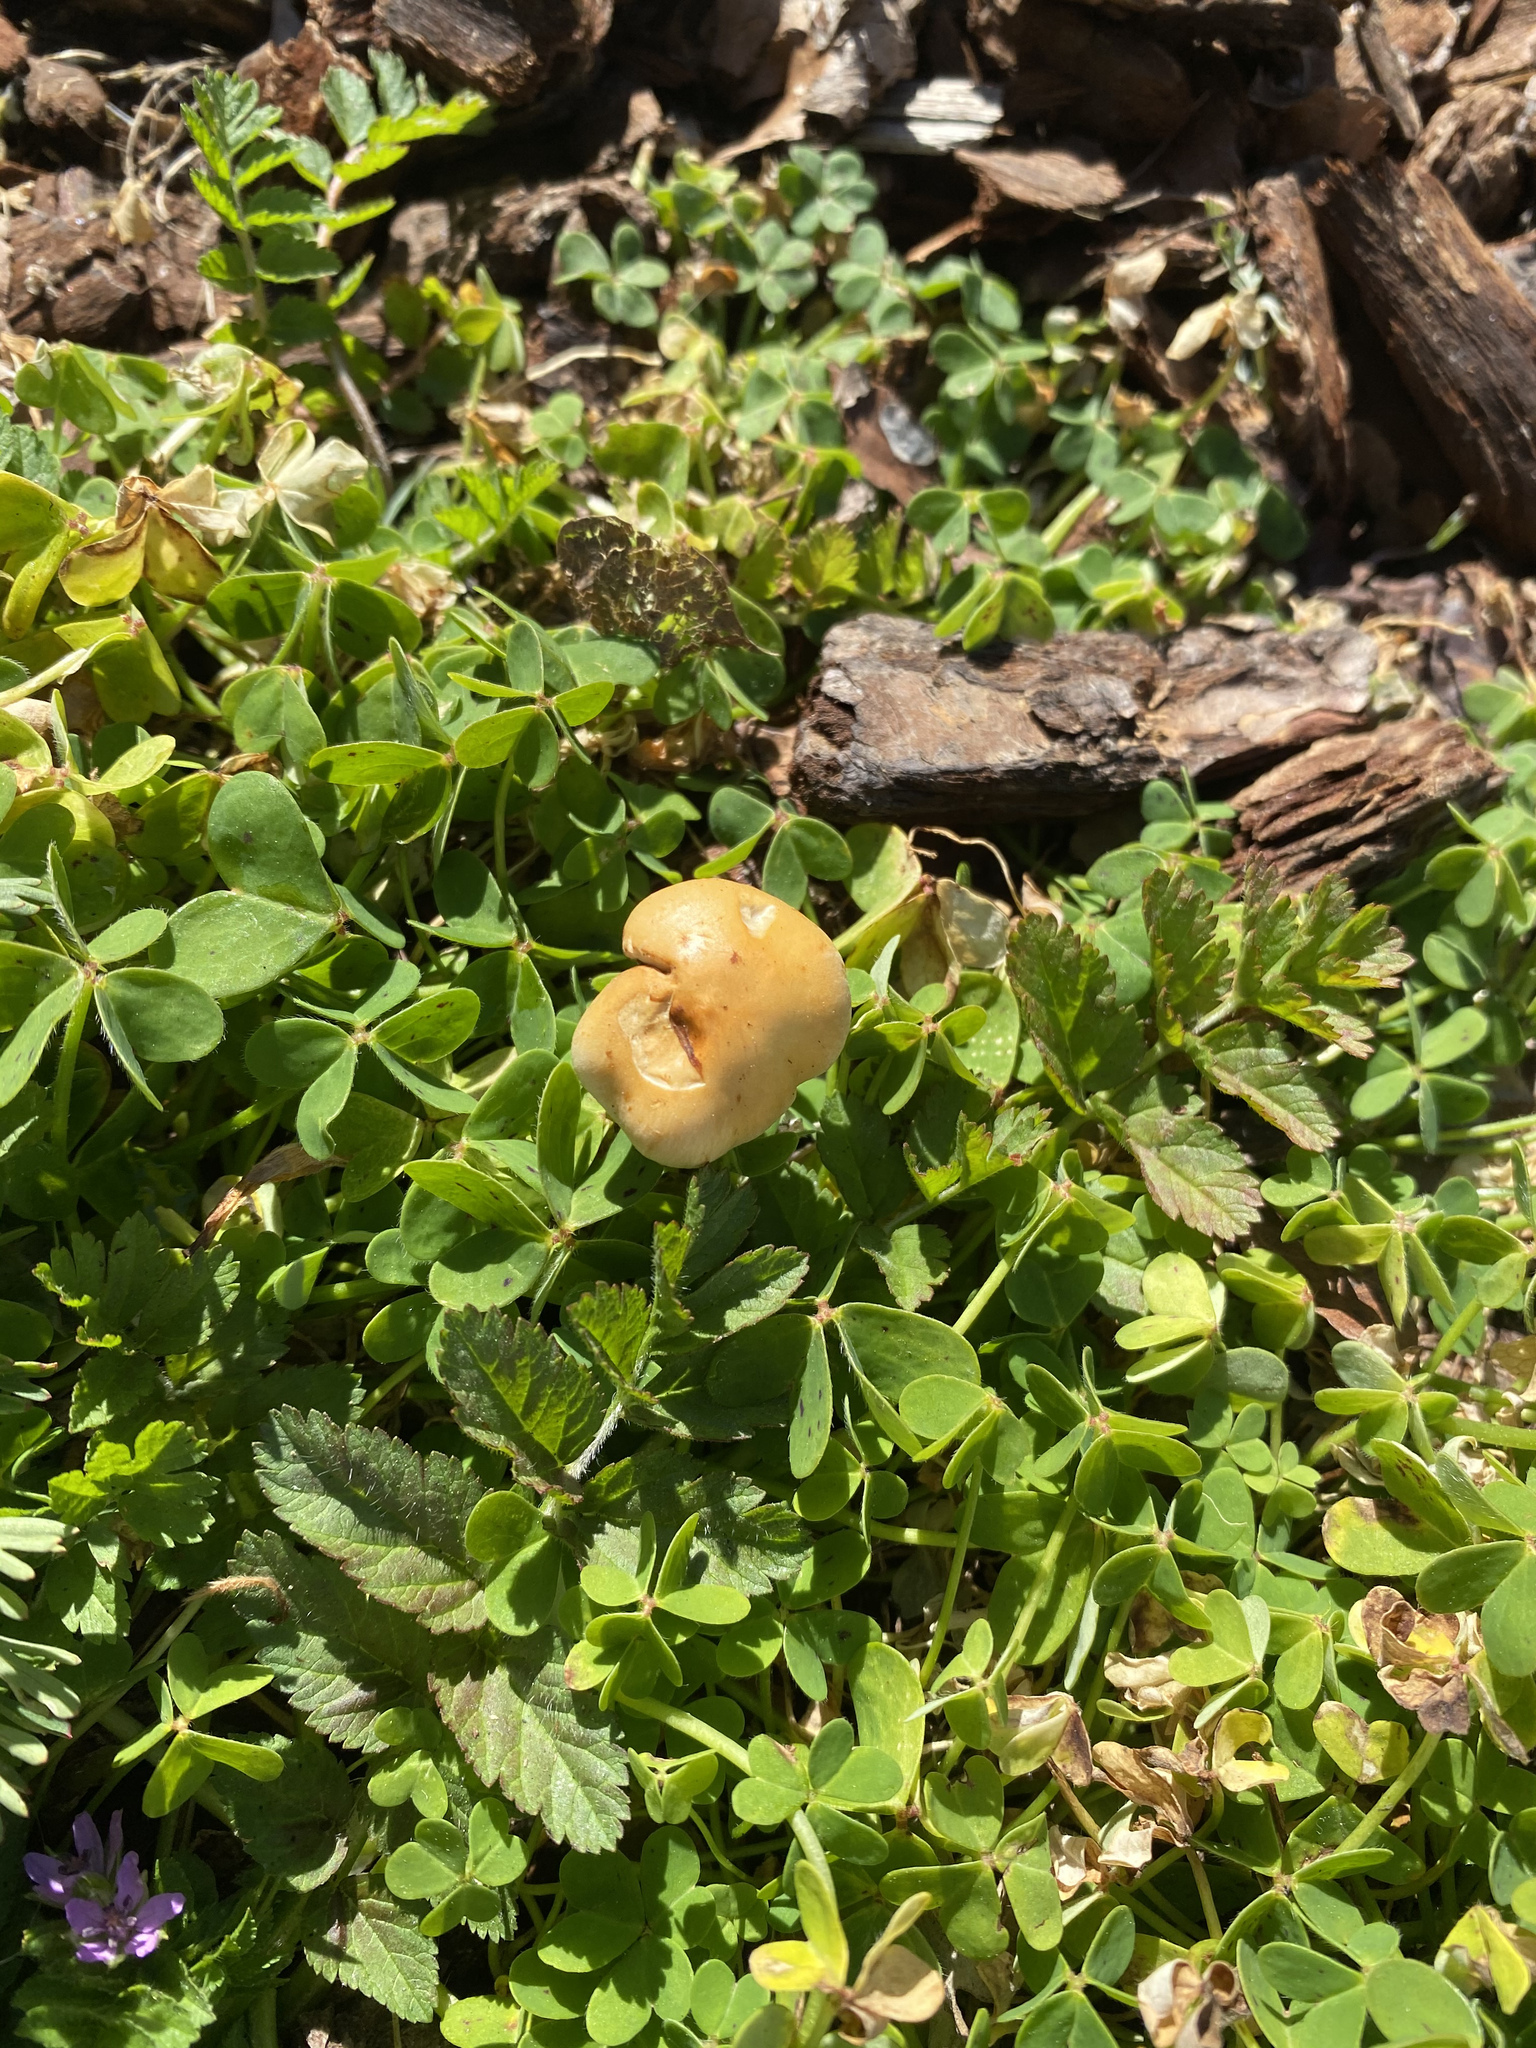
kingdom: Fungi
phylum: Basidiomycota
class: Agaricomycetes
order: Agaricales
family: Strophariaceae
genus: Leratiomyces
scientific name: Leratiomyces percevalii
